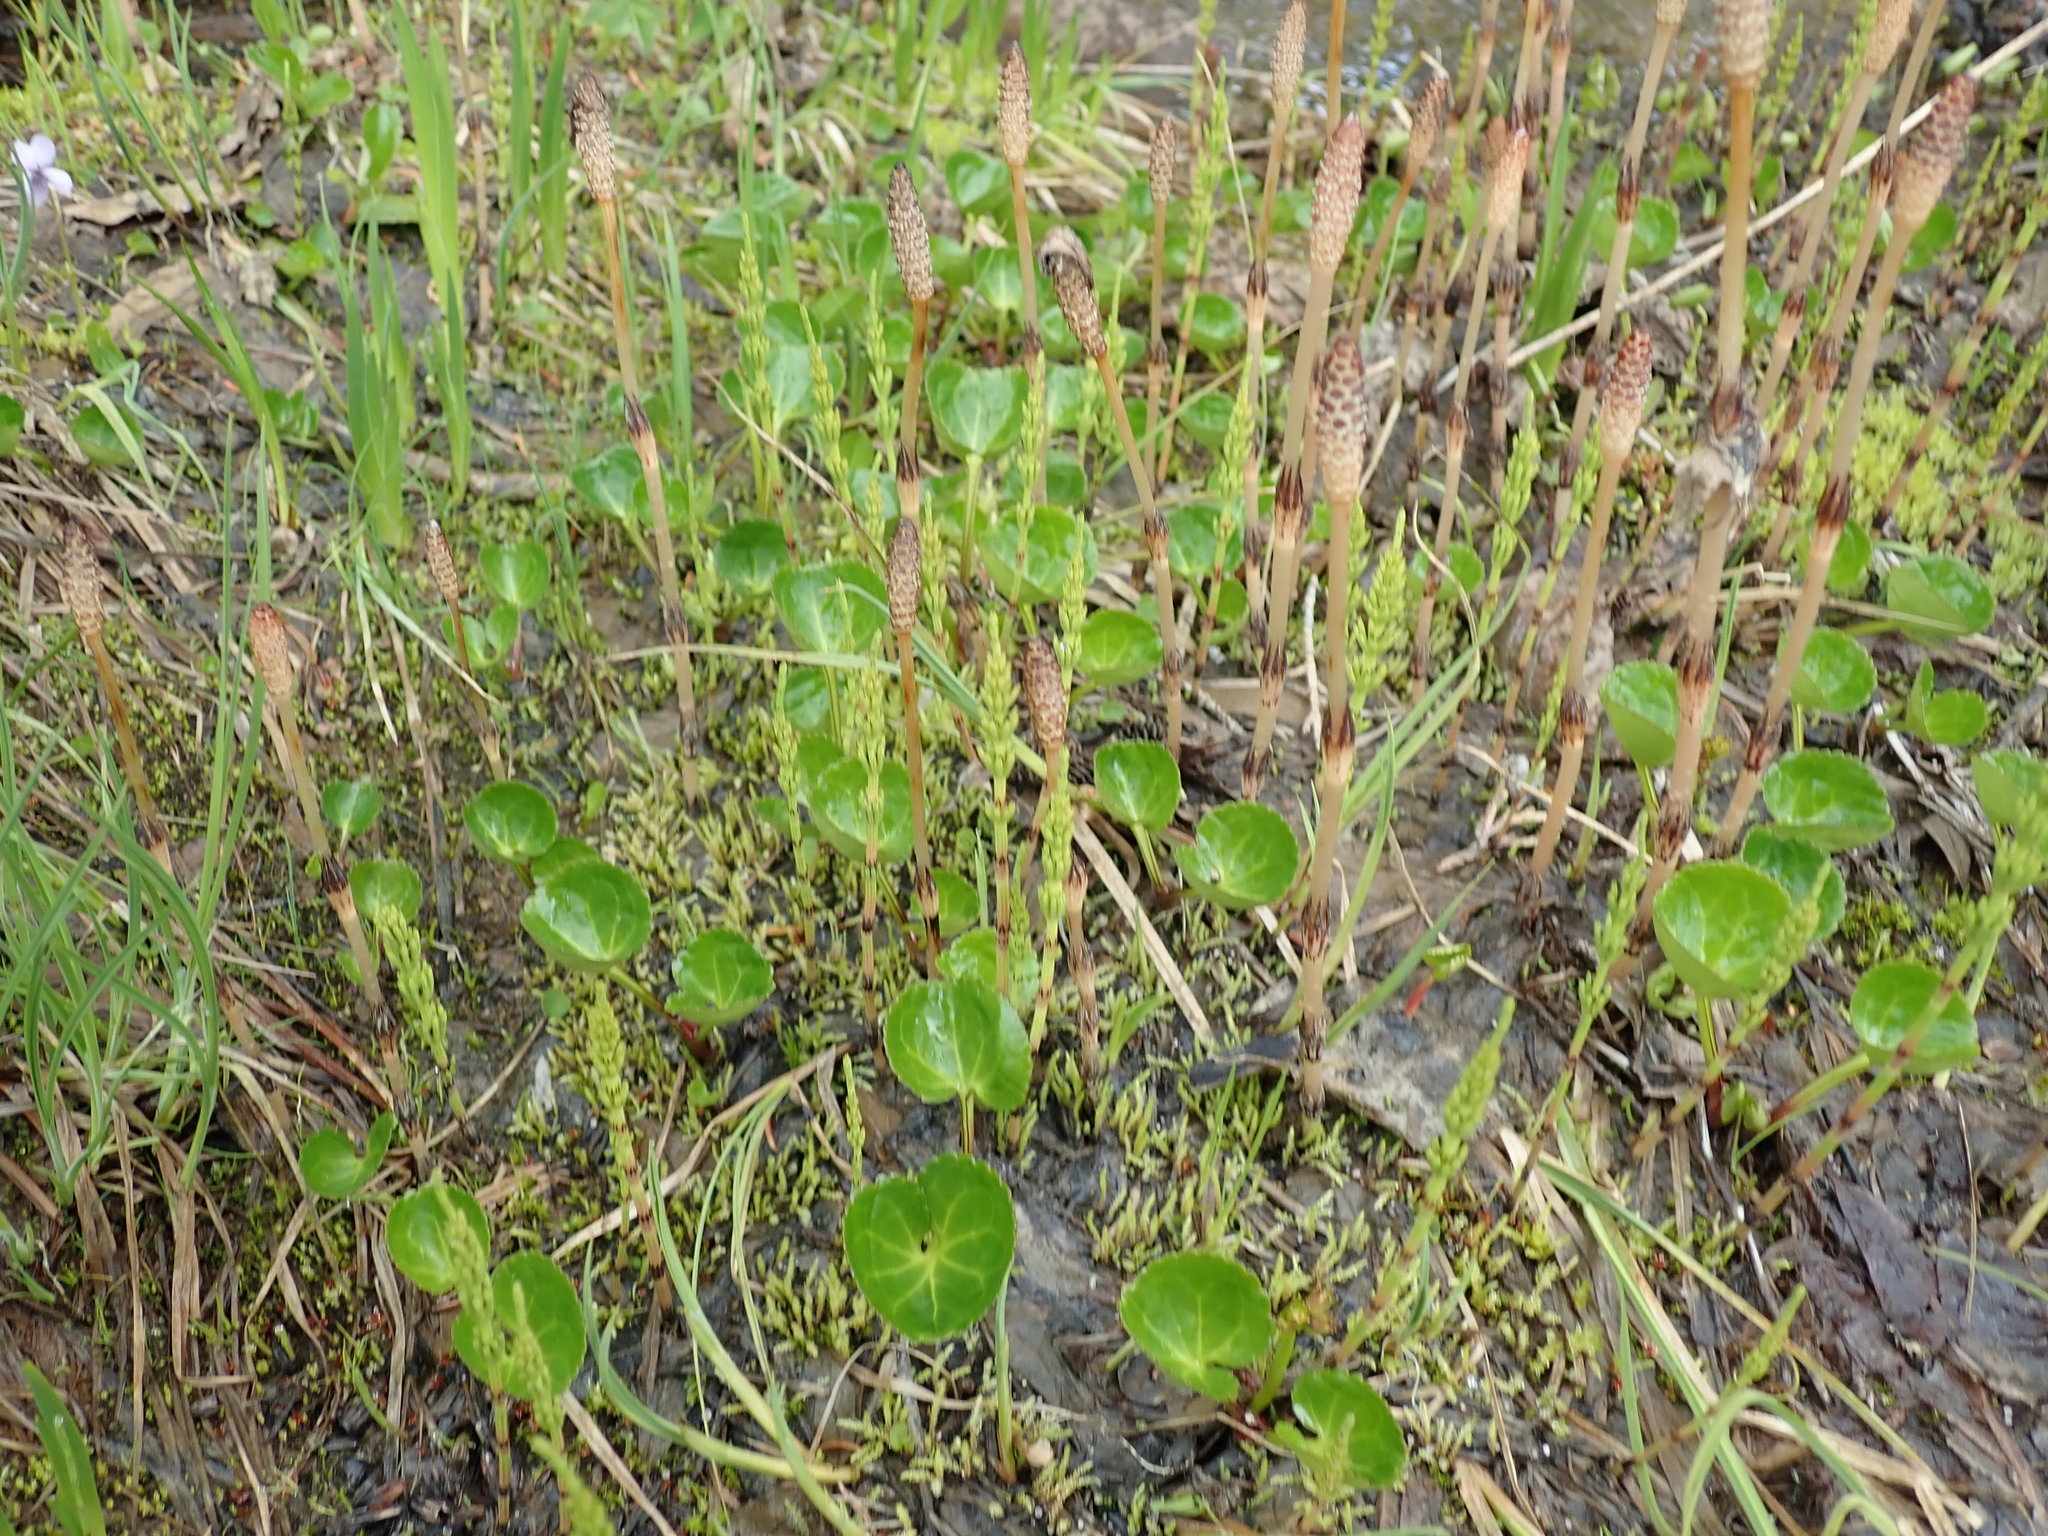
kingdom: Plantae
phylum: Tracheophyta
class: Polypodiopsida
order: Equisetales
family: Equisetaceae
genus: Equisetum
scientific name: Equisetum arvense
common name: Field horsetail
